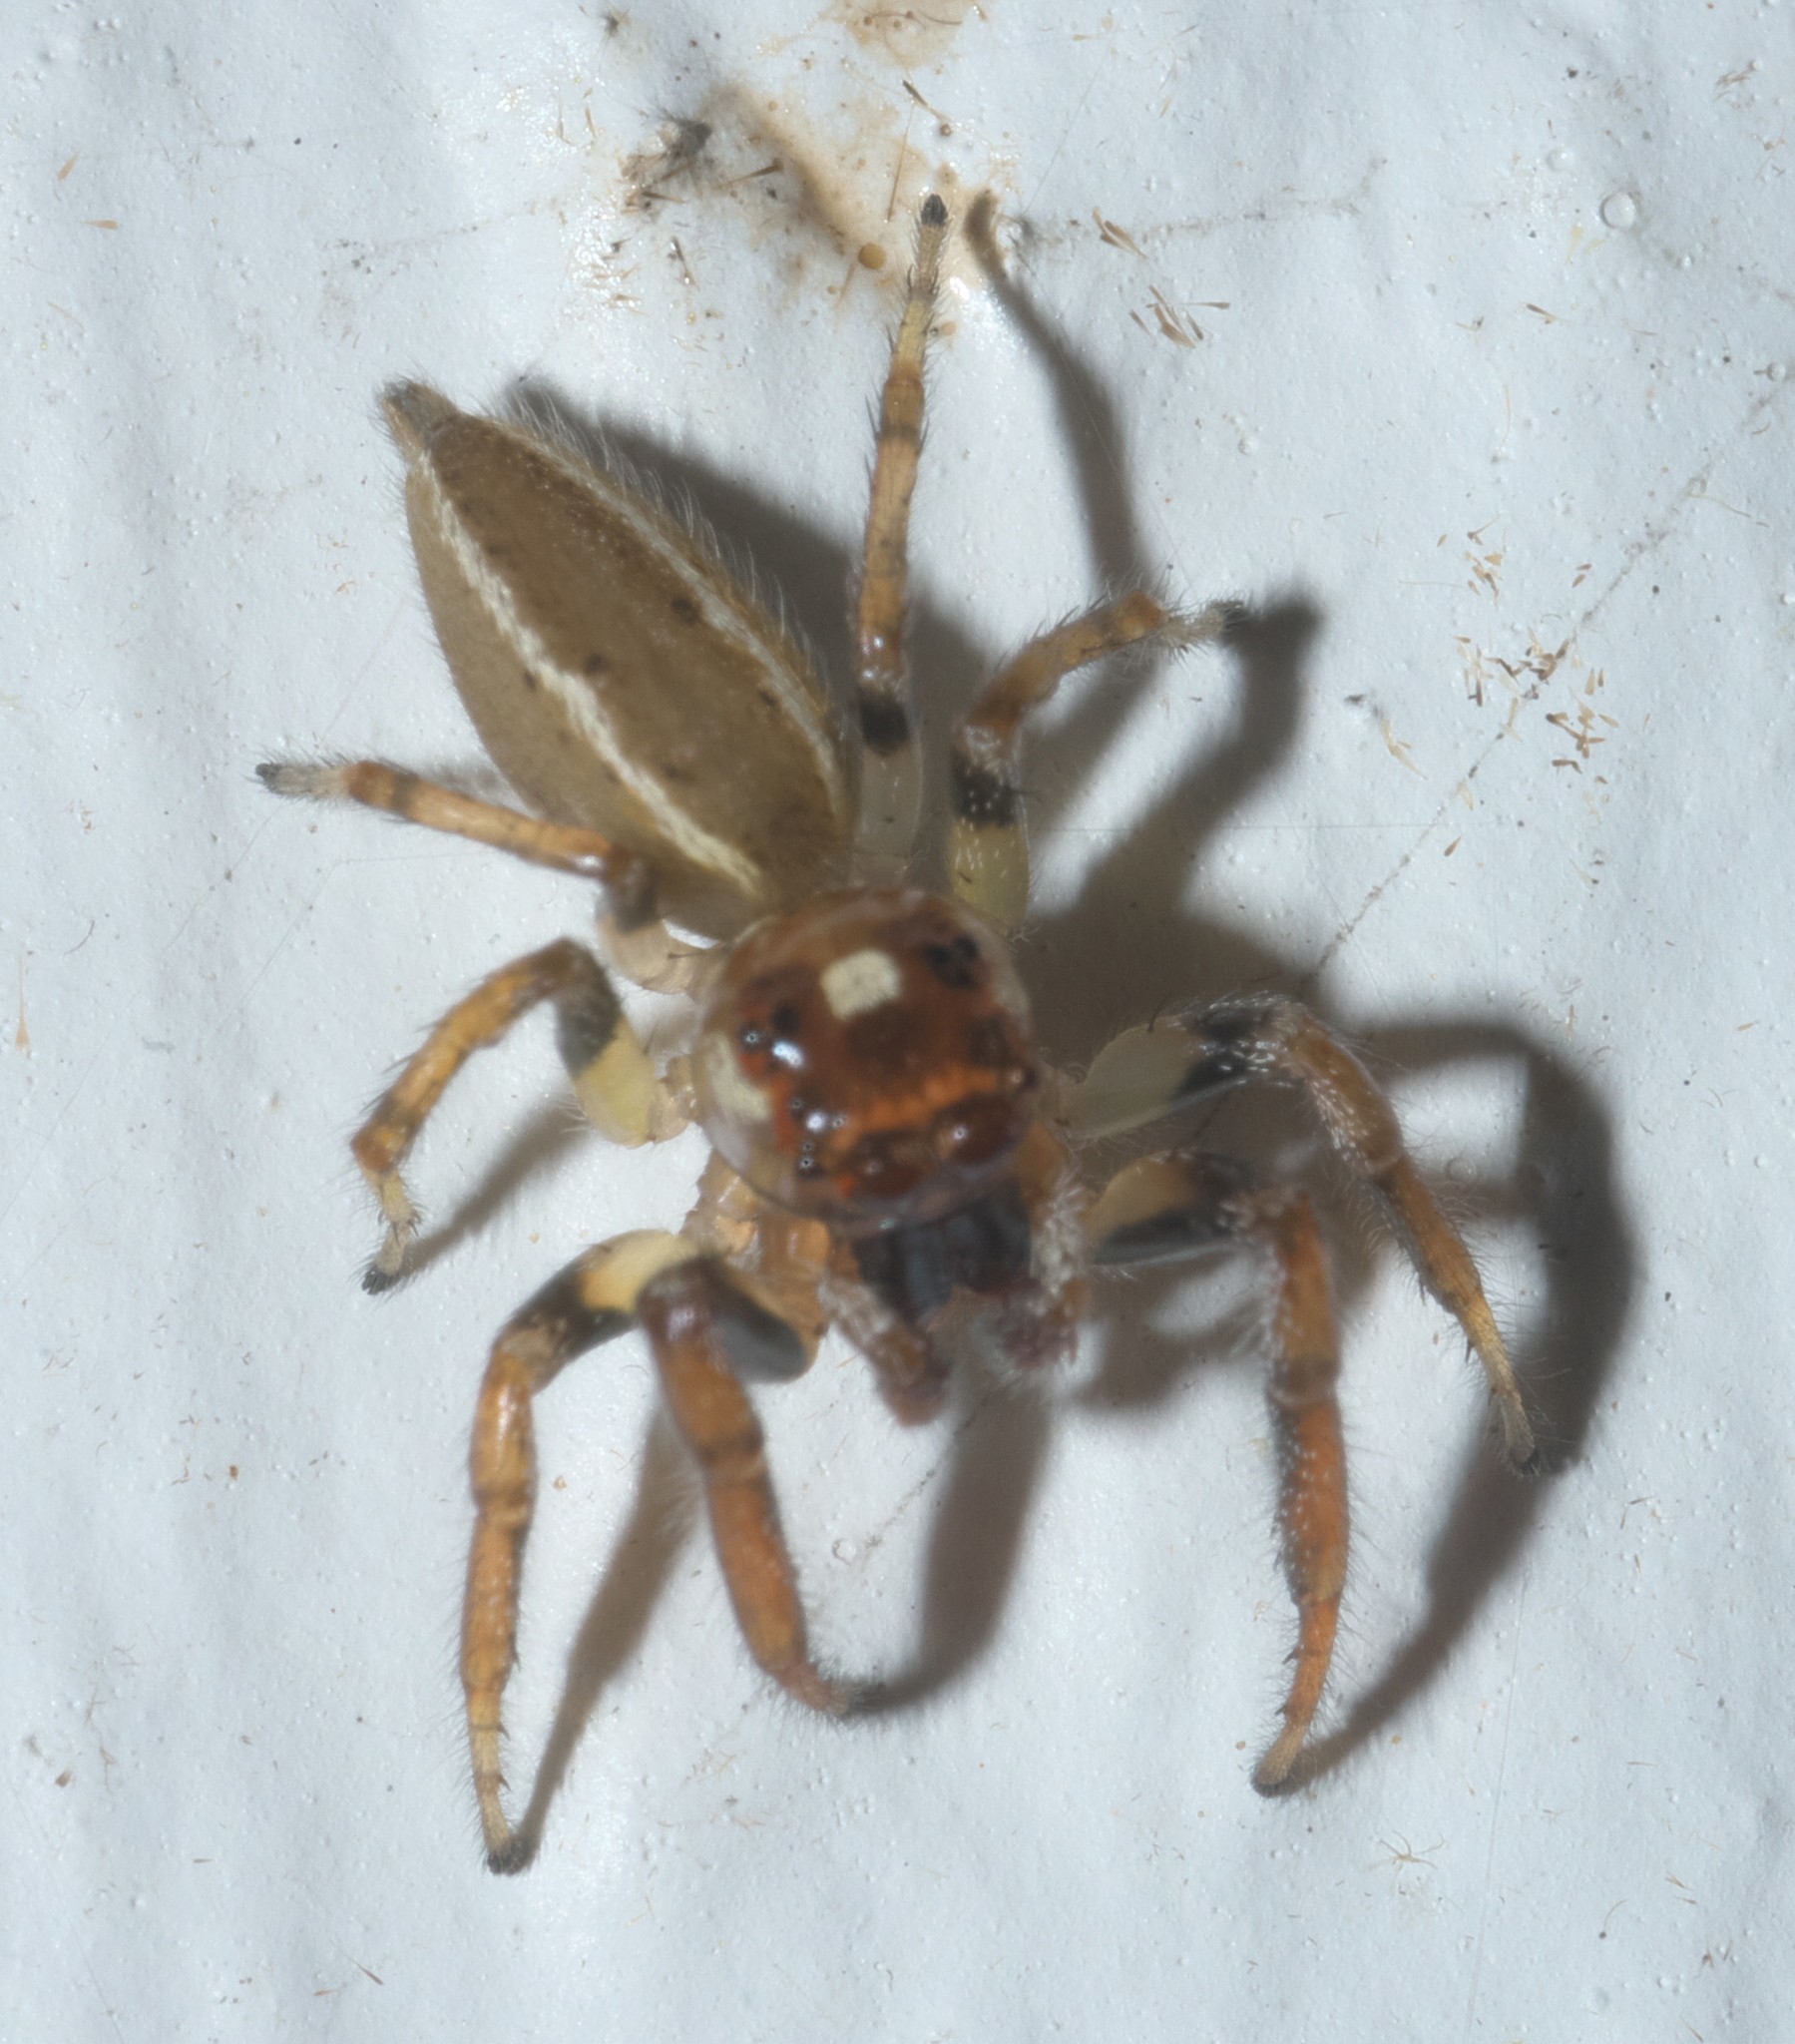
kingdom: Animalia
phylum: Arthropoda
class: Arachnida
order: Araneae
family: Salticidae
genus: Colonus
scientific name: Colonus sylvanus
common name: Jumping spiders
